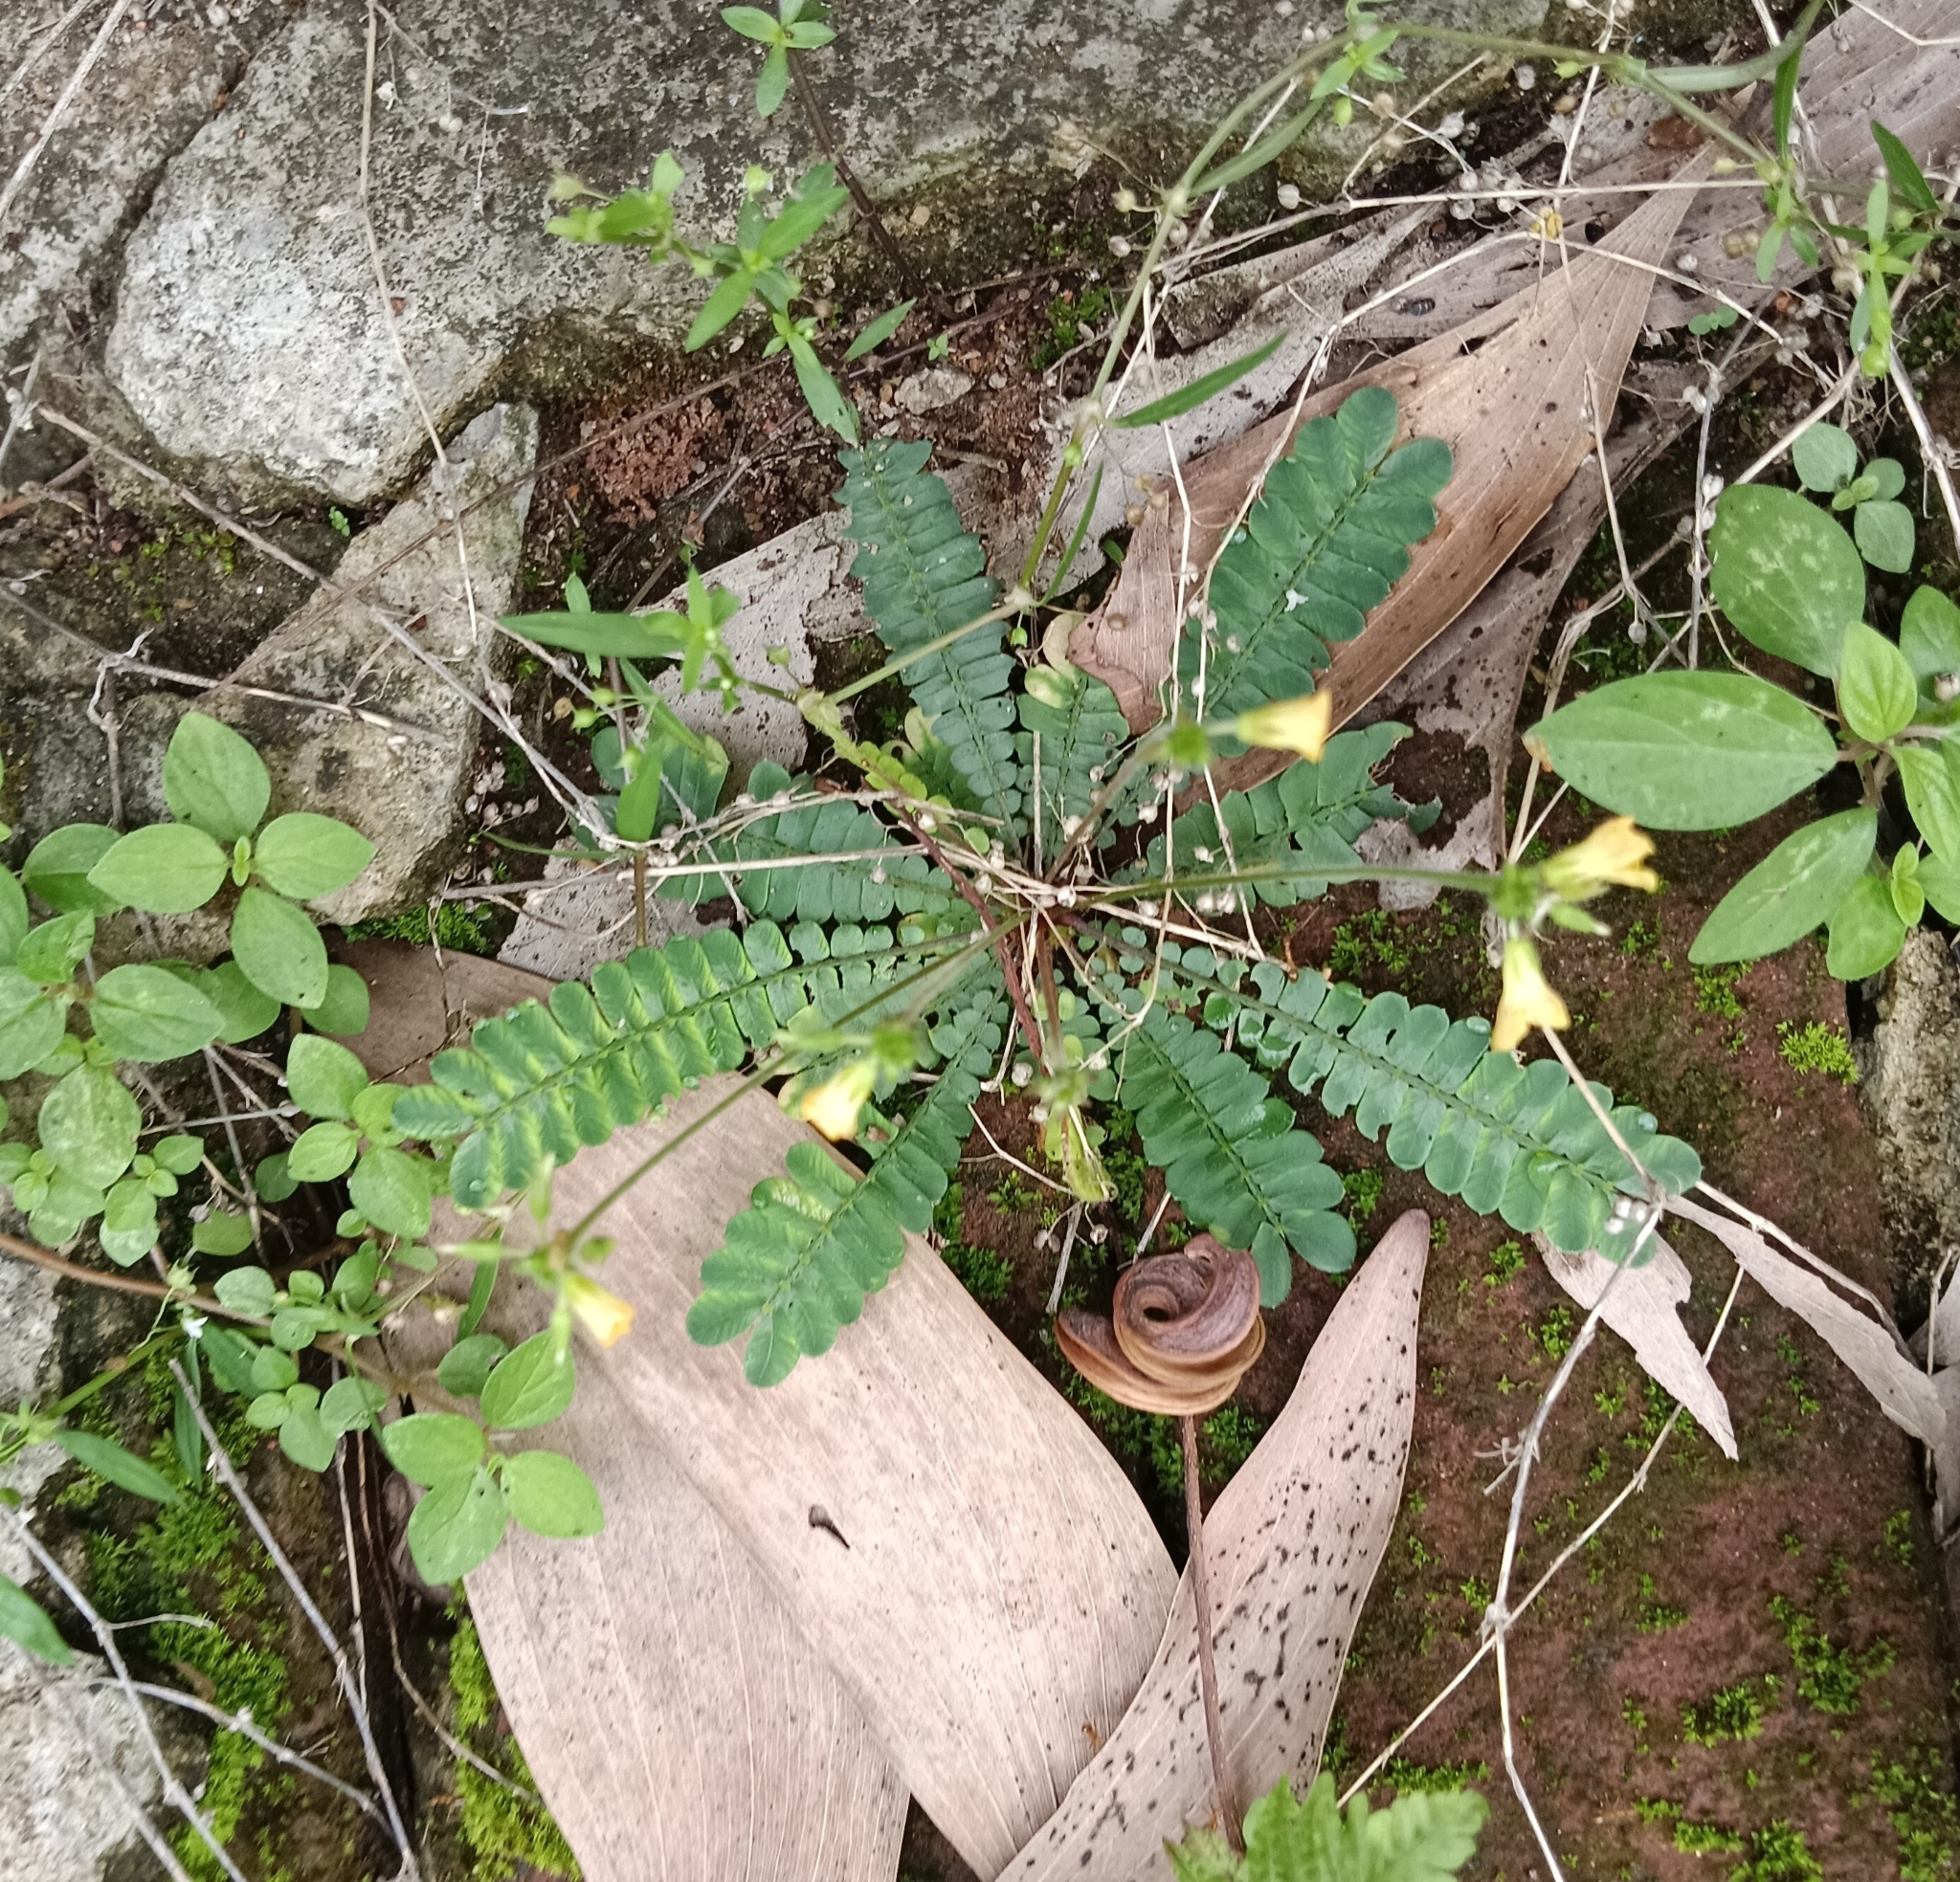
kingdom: Plantae
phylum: Tracheophyta
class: Magnoliopsida
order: Oxalidales
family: Oxalidaceae
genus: Biophytum
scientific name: Biophytum sensitivum
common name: Lifeplant
